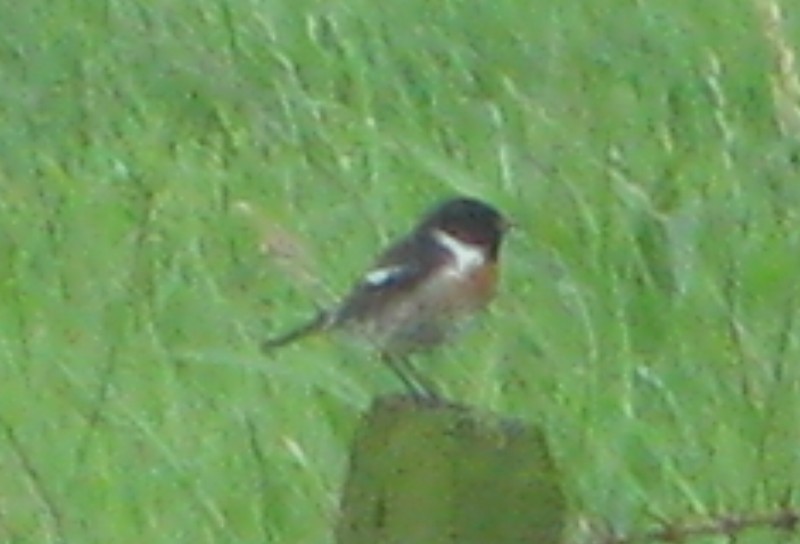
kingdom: Animalia
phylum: Chordata
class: Aves
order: Passeriformes
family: Muscicapidae
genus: Saxicola
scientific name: Saxicola rubicola
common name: European stonechat
